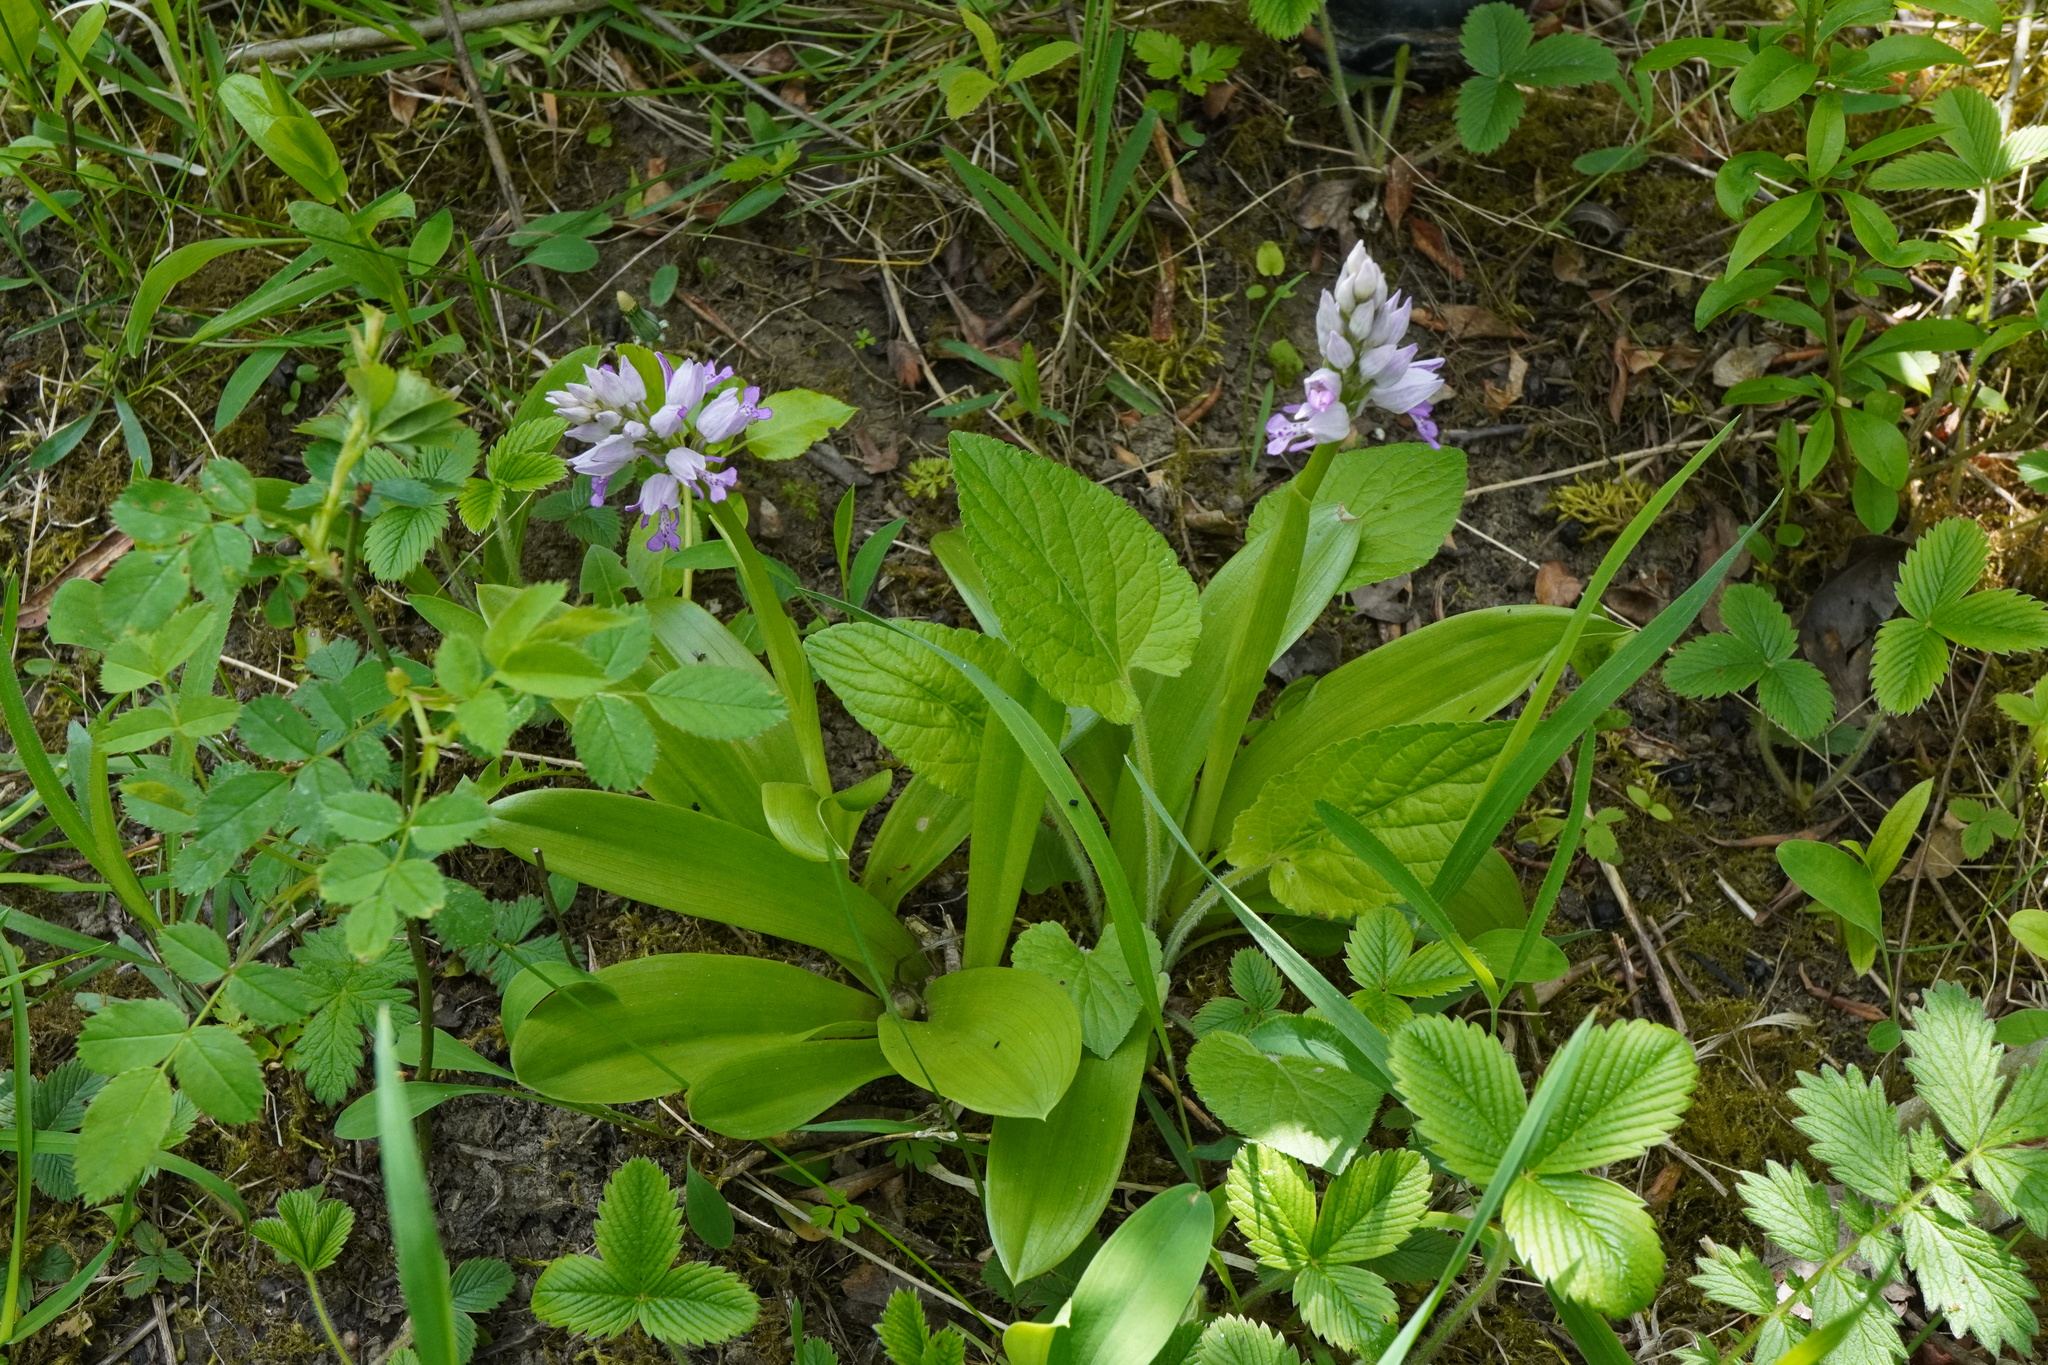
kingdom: Plantae
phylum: Tracheophyta
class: Liliopsida
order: Asparagales
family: Orchidaceae
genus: Orchis
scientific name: Orchis militaris
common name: Military orchid
